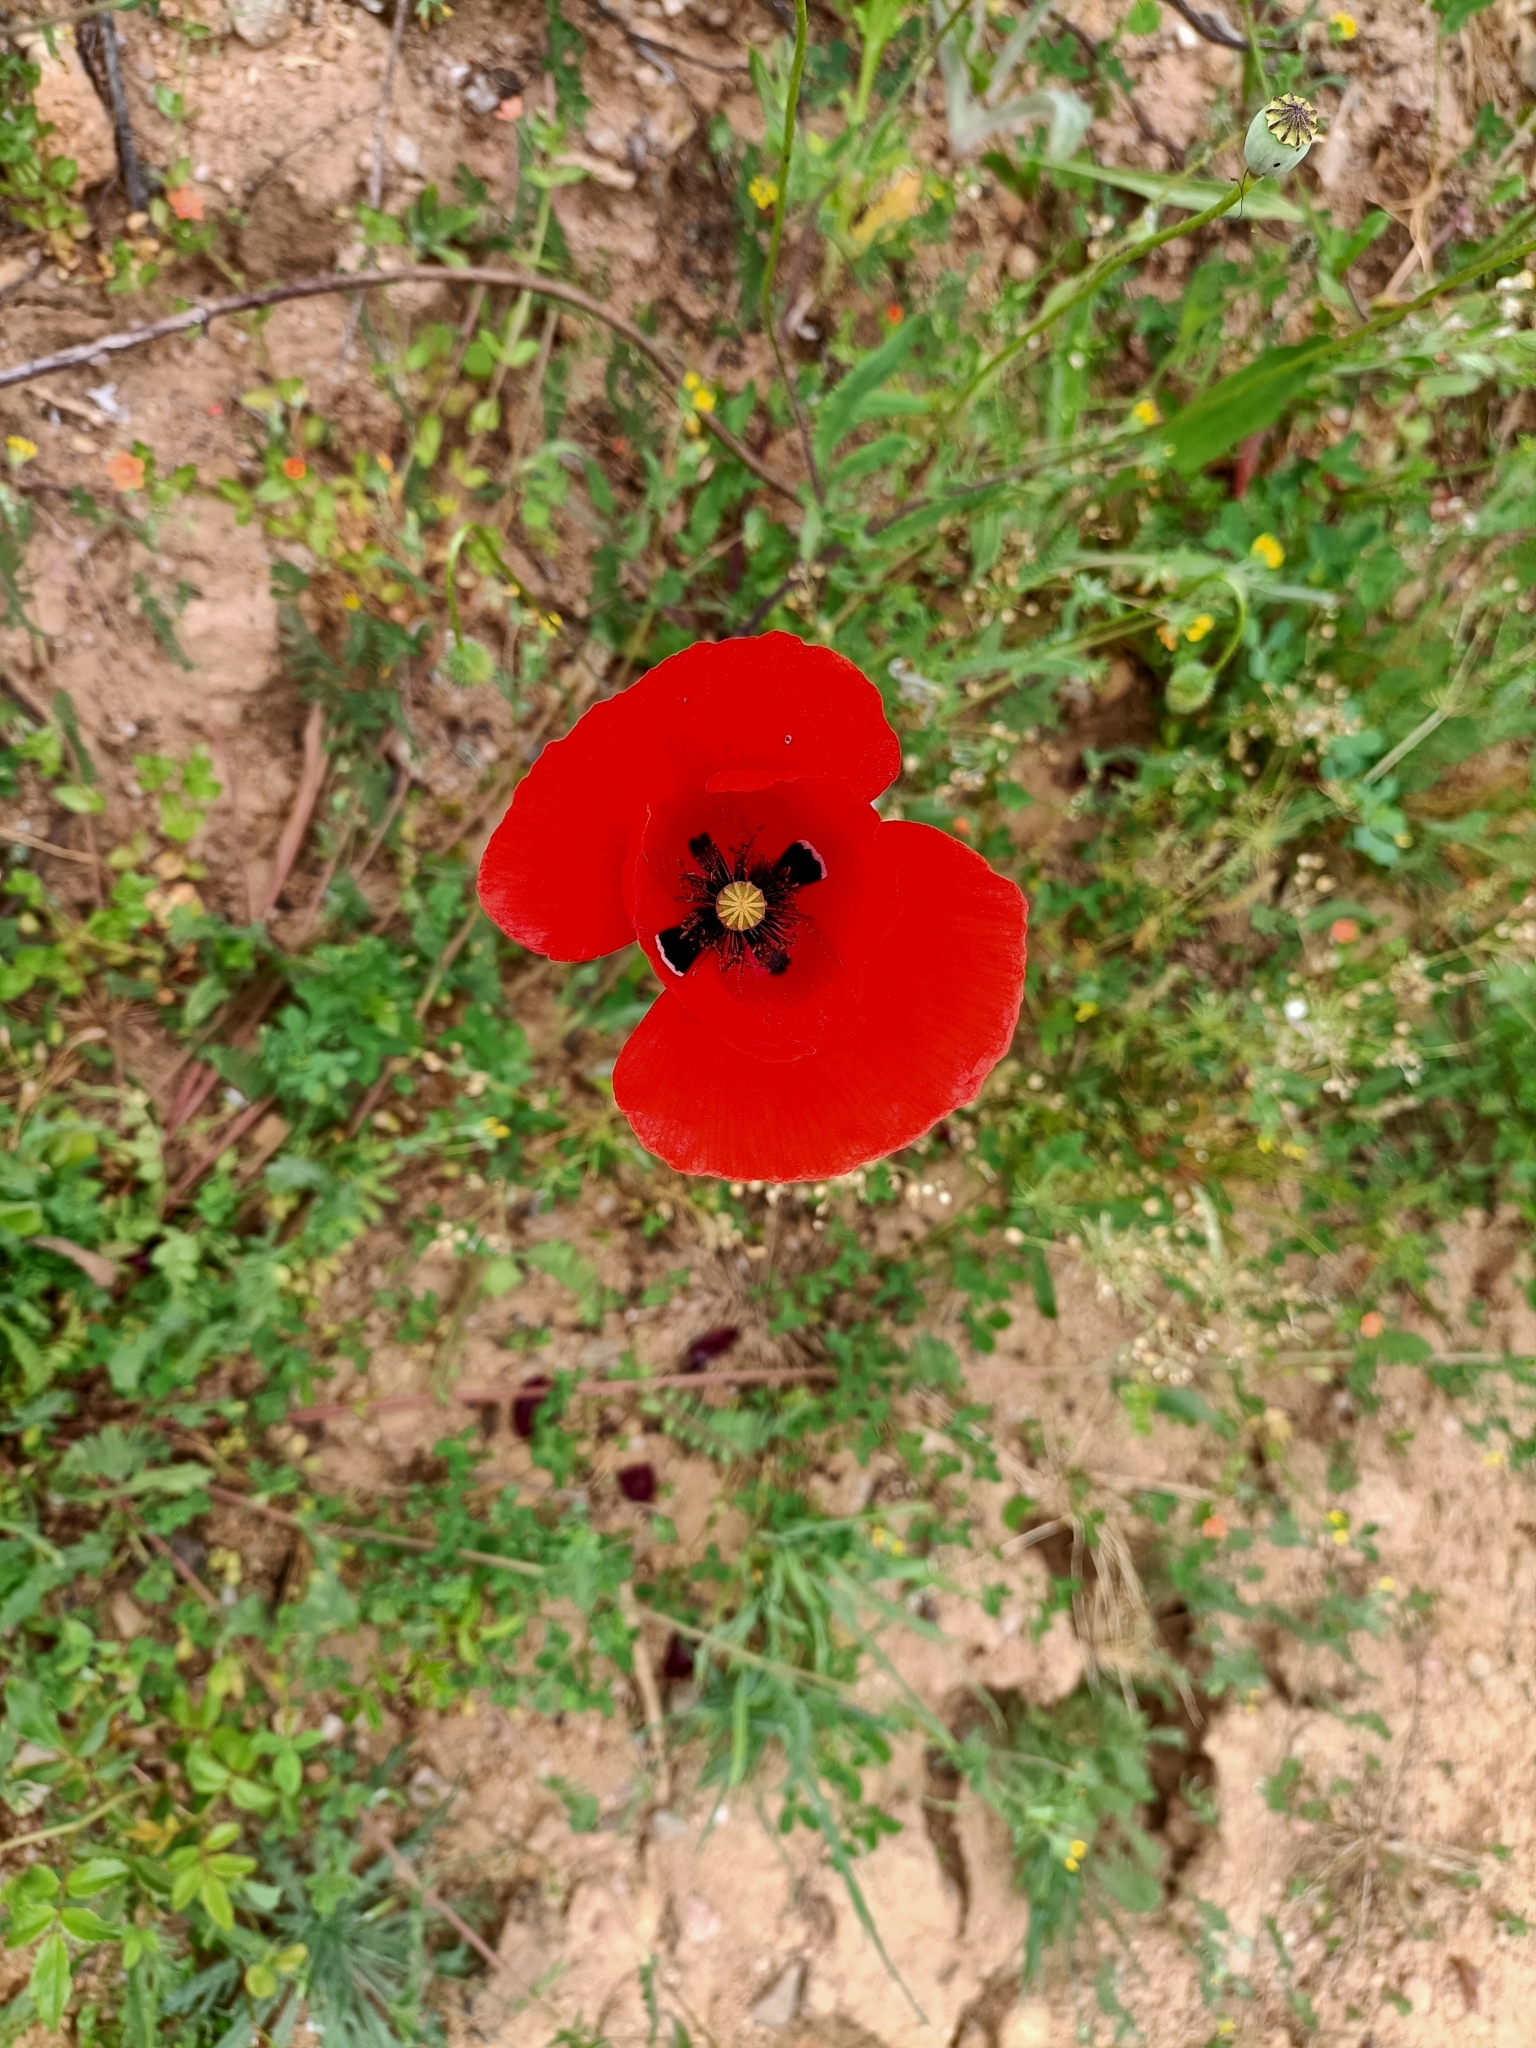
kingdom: Plantae
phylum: Tracheophyta
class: Magnoliopsida
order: Ranunculales
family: Papaveraceae
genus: Papaver
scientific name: Papaver rhoeas
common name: Corn poppy
